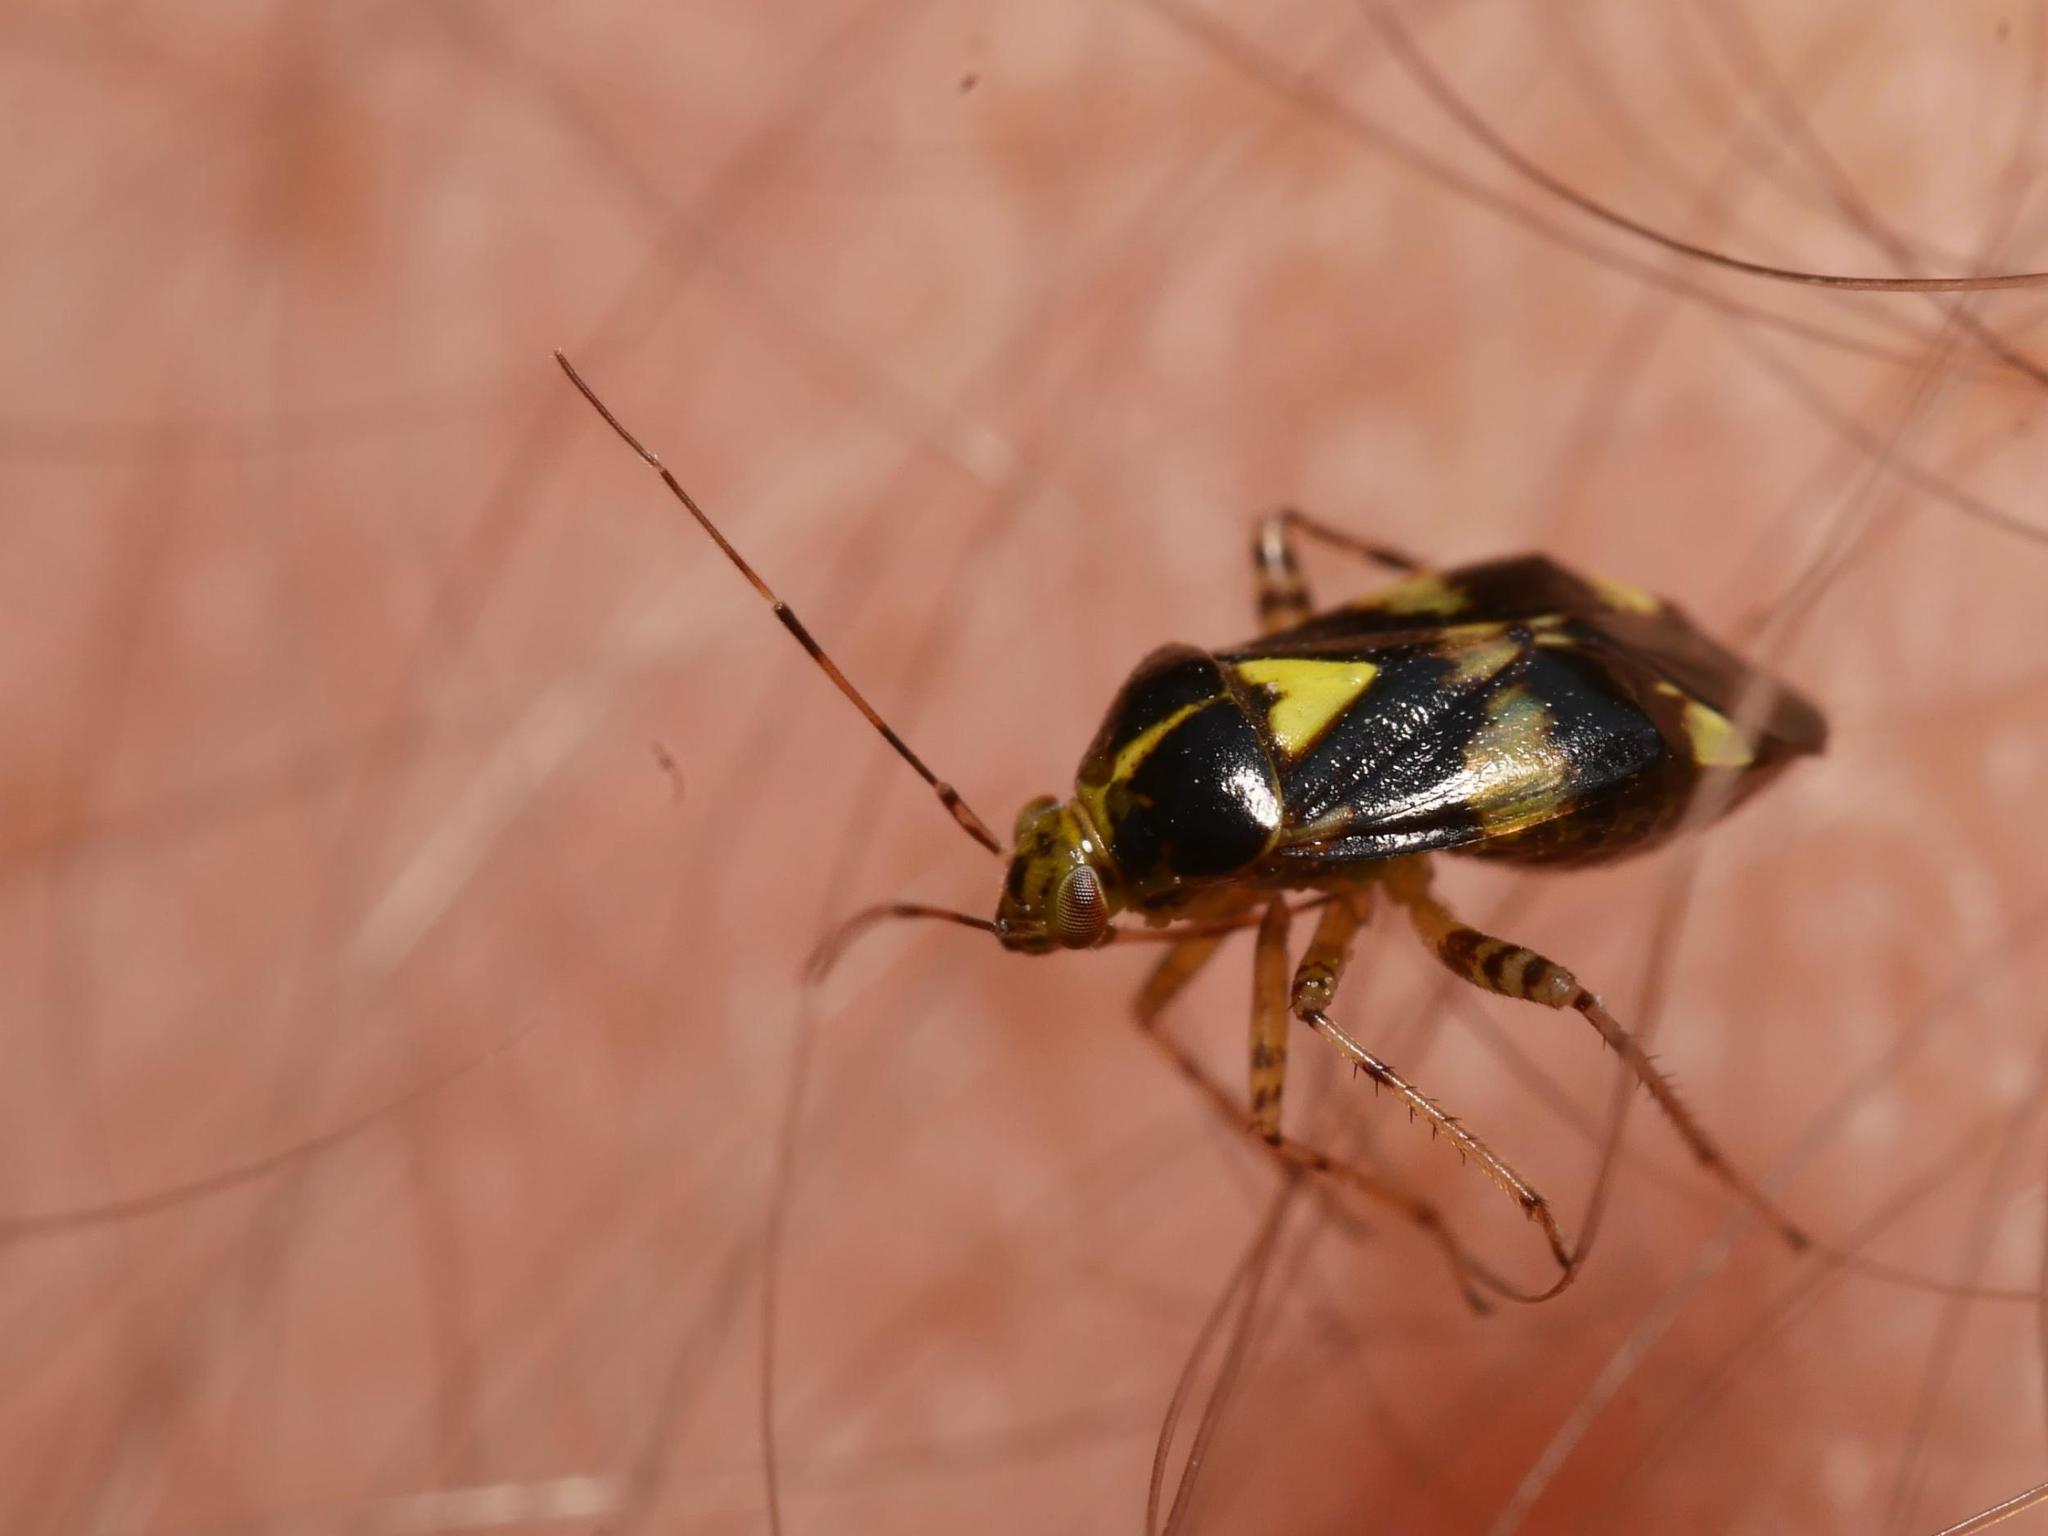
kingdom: Animalia
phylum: Arthropoda
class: Insecta
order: Hemiptera
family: Miridae
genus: Liocoris
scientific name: Liocoris tripustulatus
